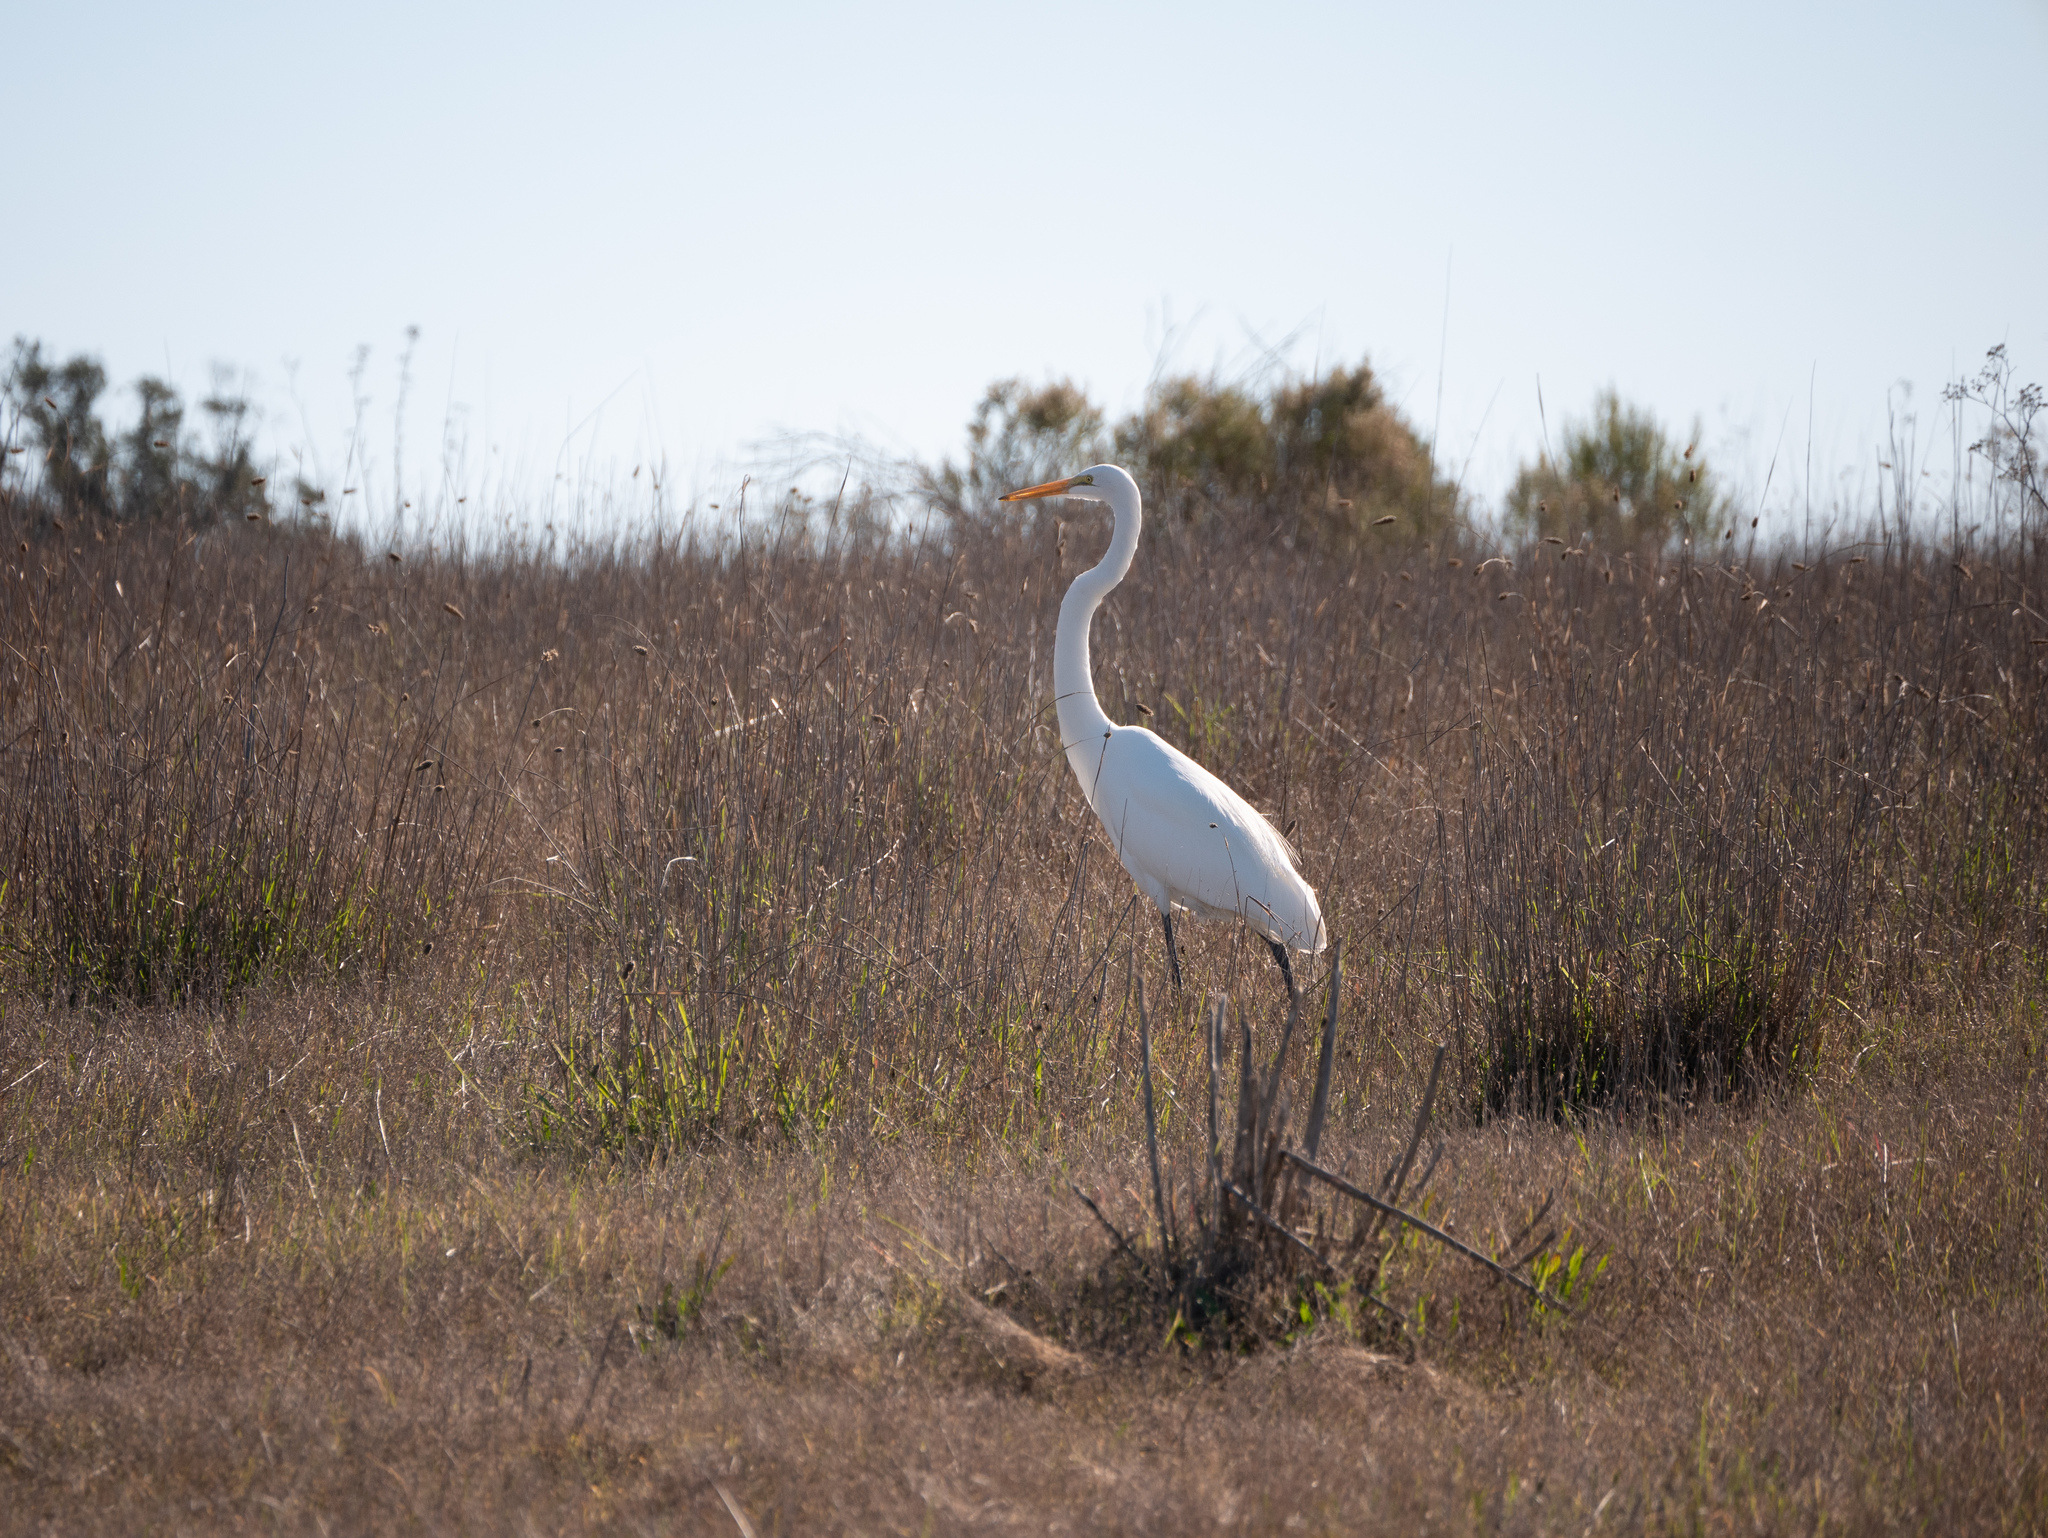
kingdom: Animalia
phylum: Chordata
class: Aves
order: Pelecaniformes
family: Ardeidae
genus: Ardea
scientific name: Ardea alba
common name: Great egret
